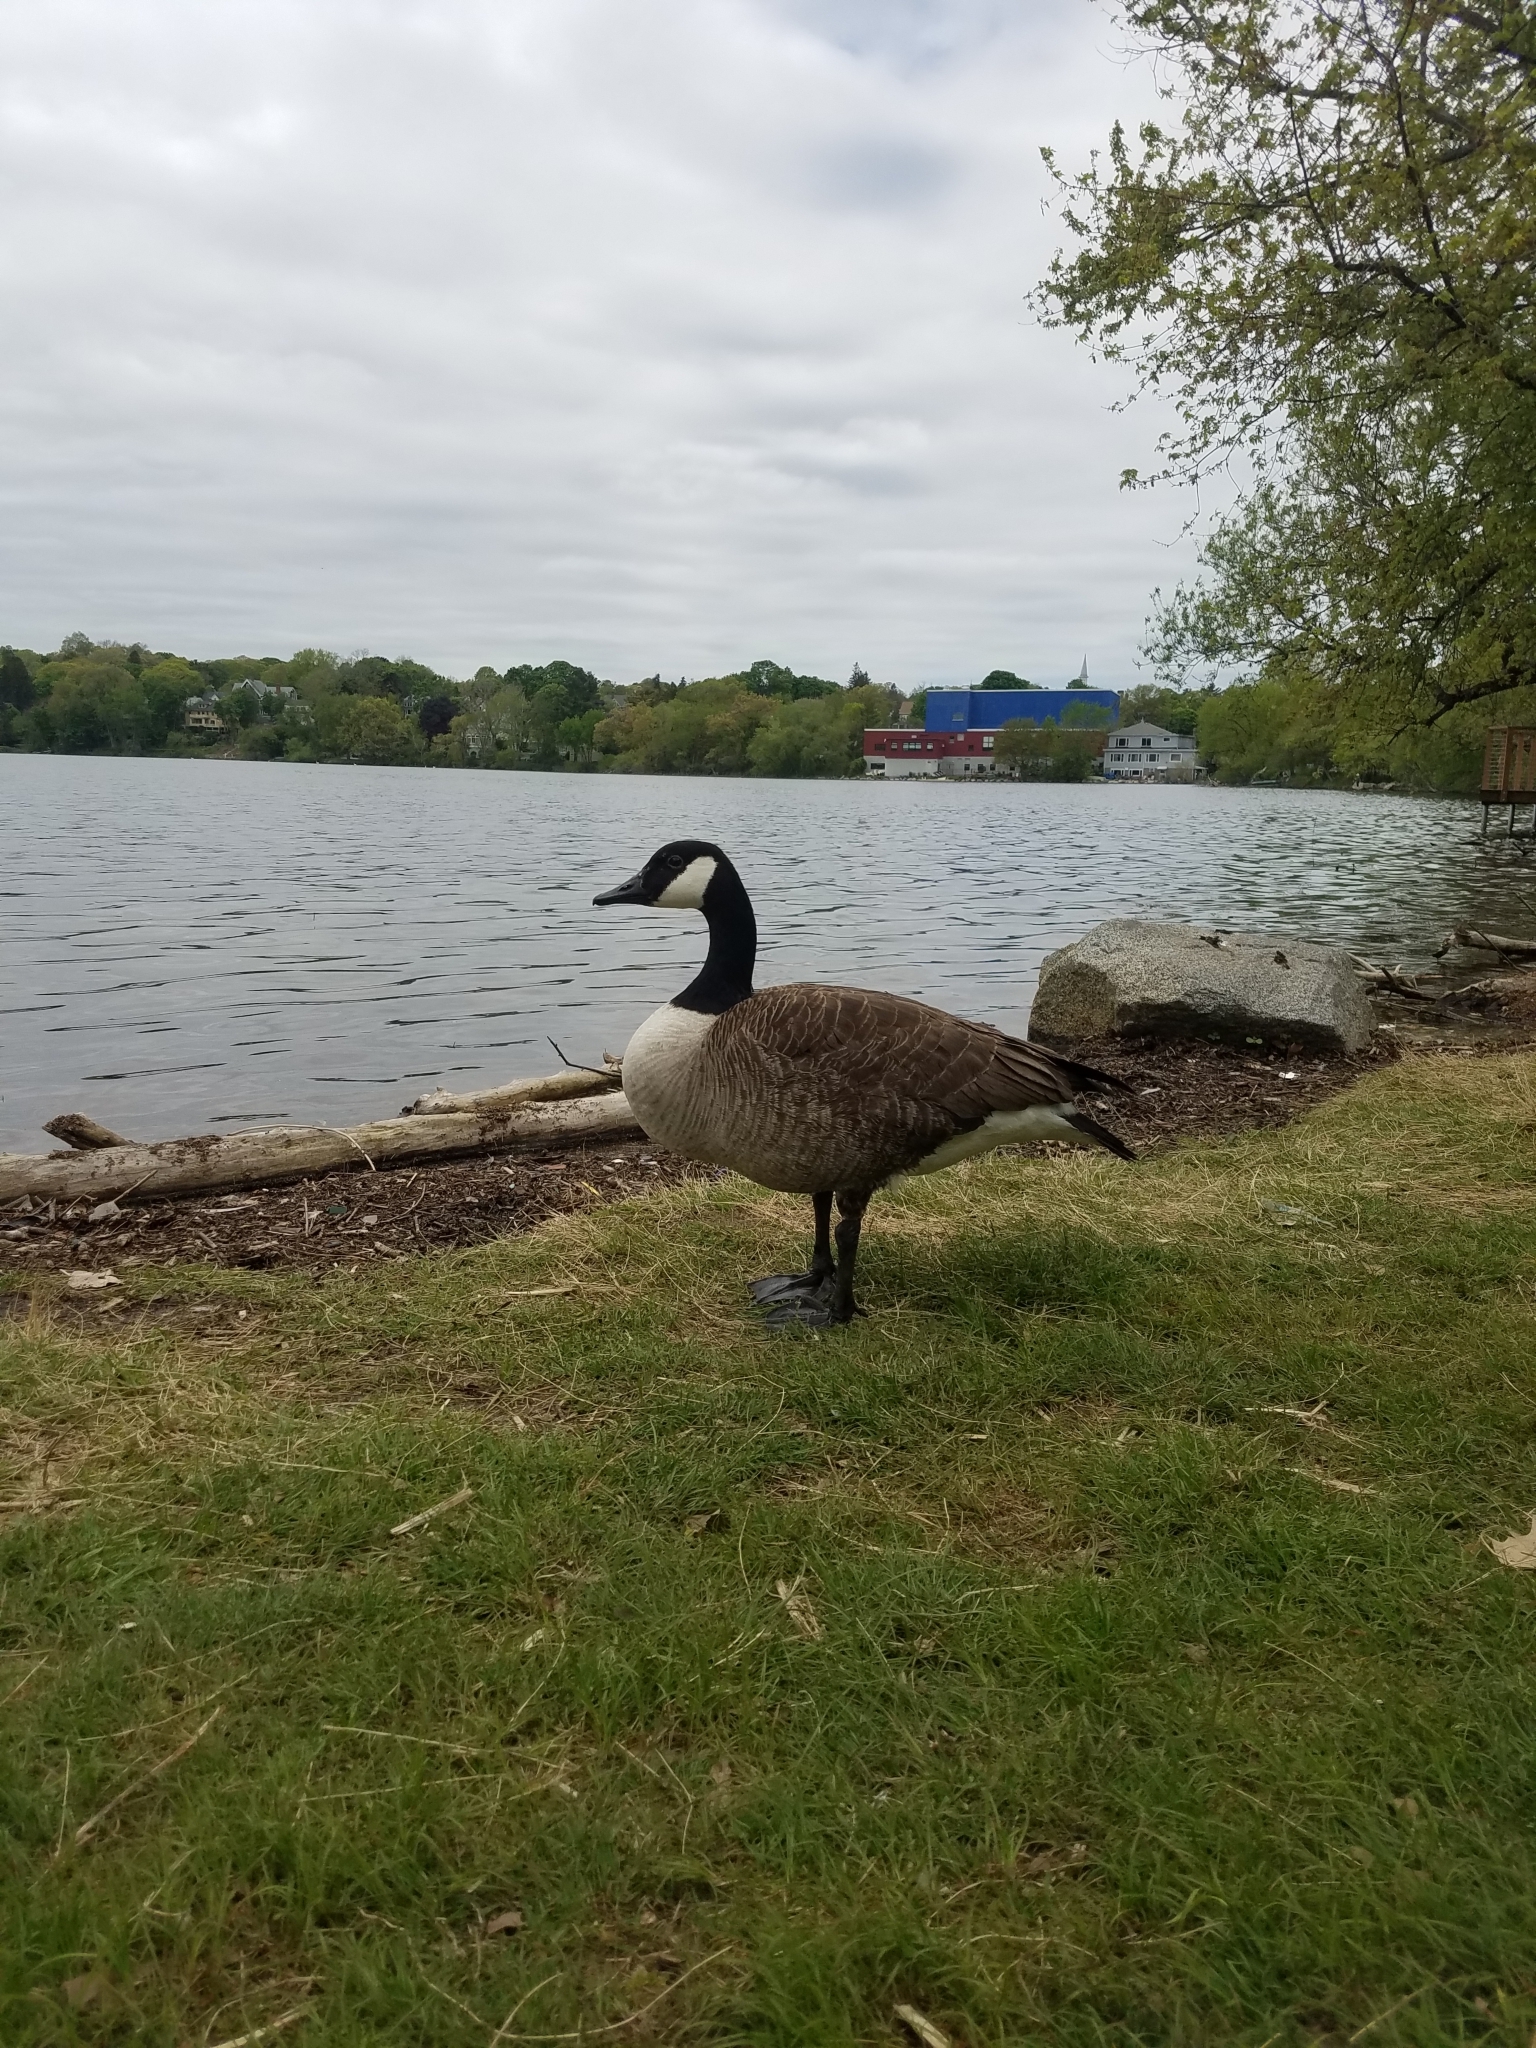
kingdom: Animalia
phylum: Chordata
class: Aves
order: Anseriformes
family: Anatidae
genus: Branta
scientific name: Branta canadensis
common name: Canada goose
